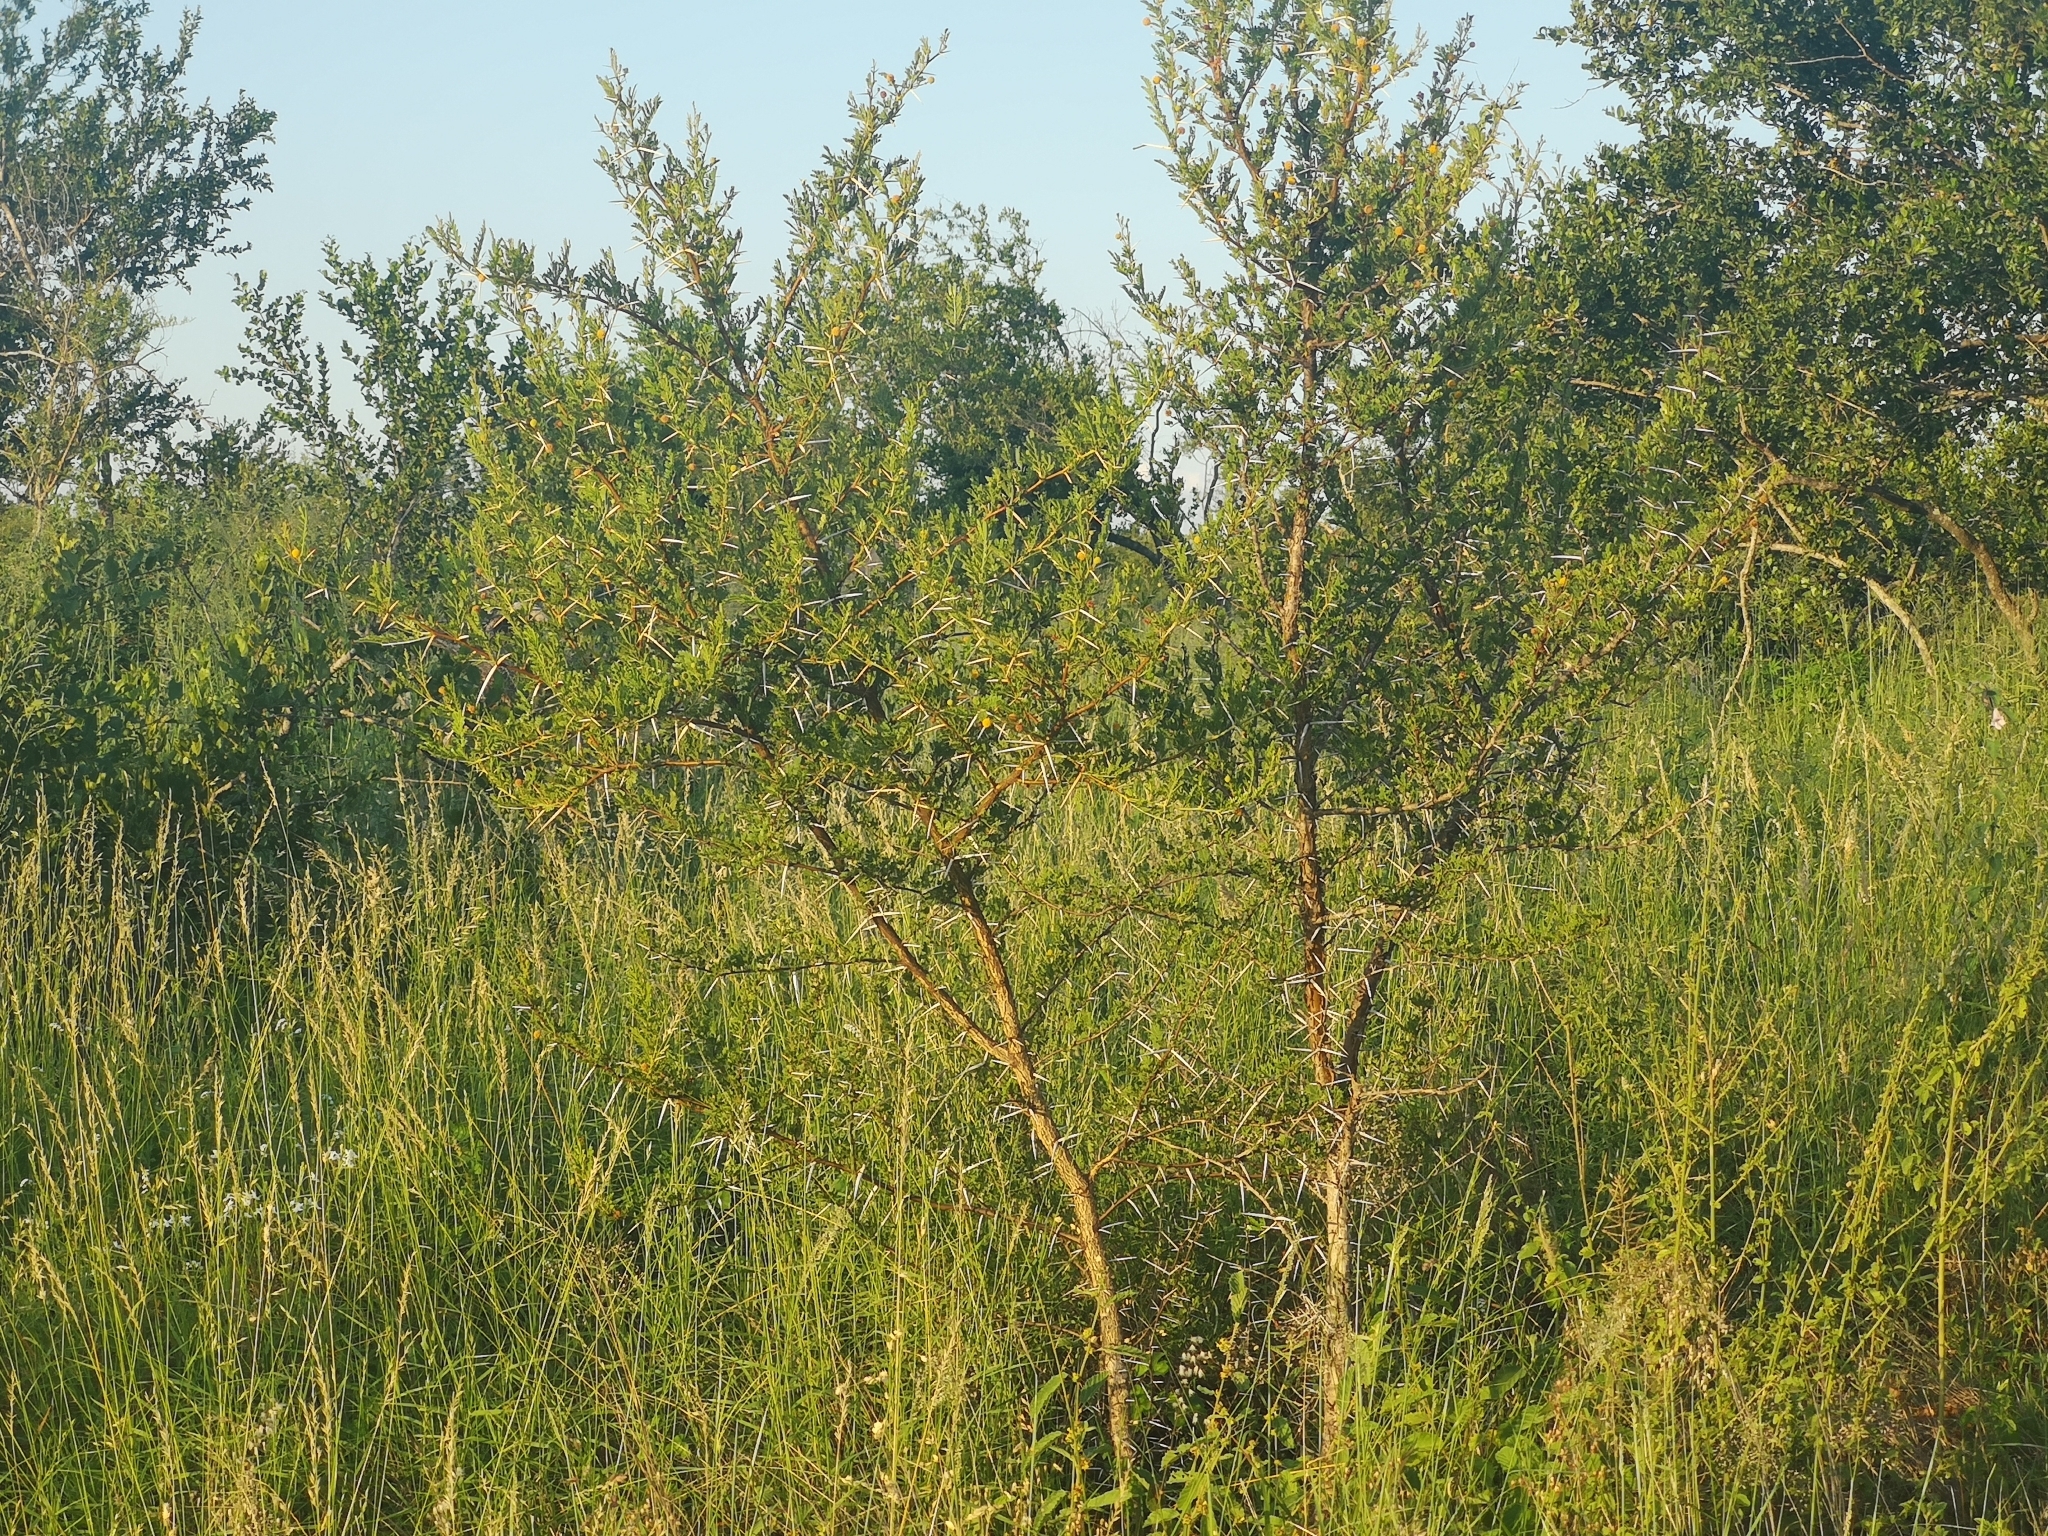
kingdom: Plantae
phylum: Tracheophyta
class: Magnoliopsida
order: Fabales
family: Fabaceae
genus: Vachellia
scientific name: Vachellia exuvialis
